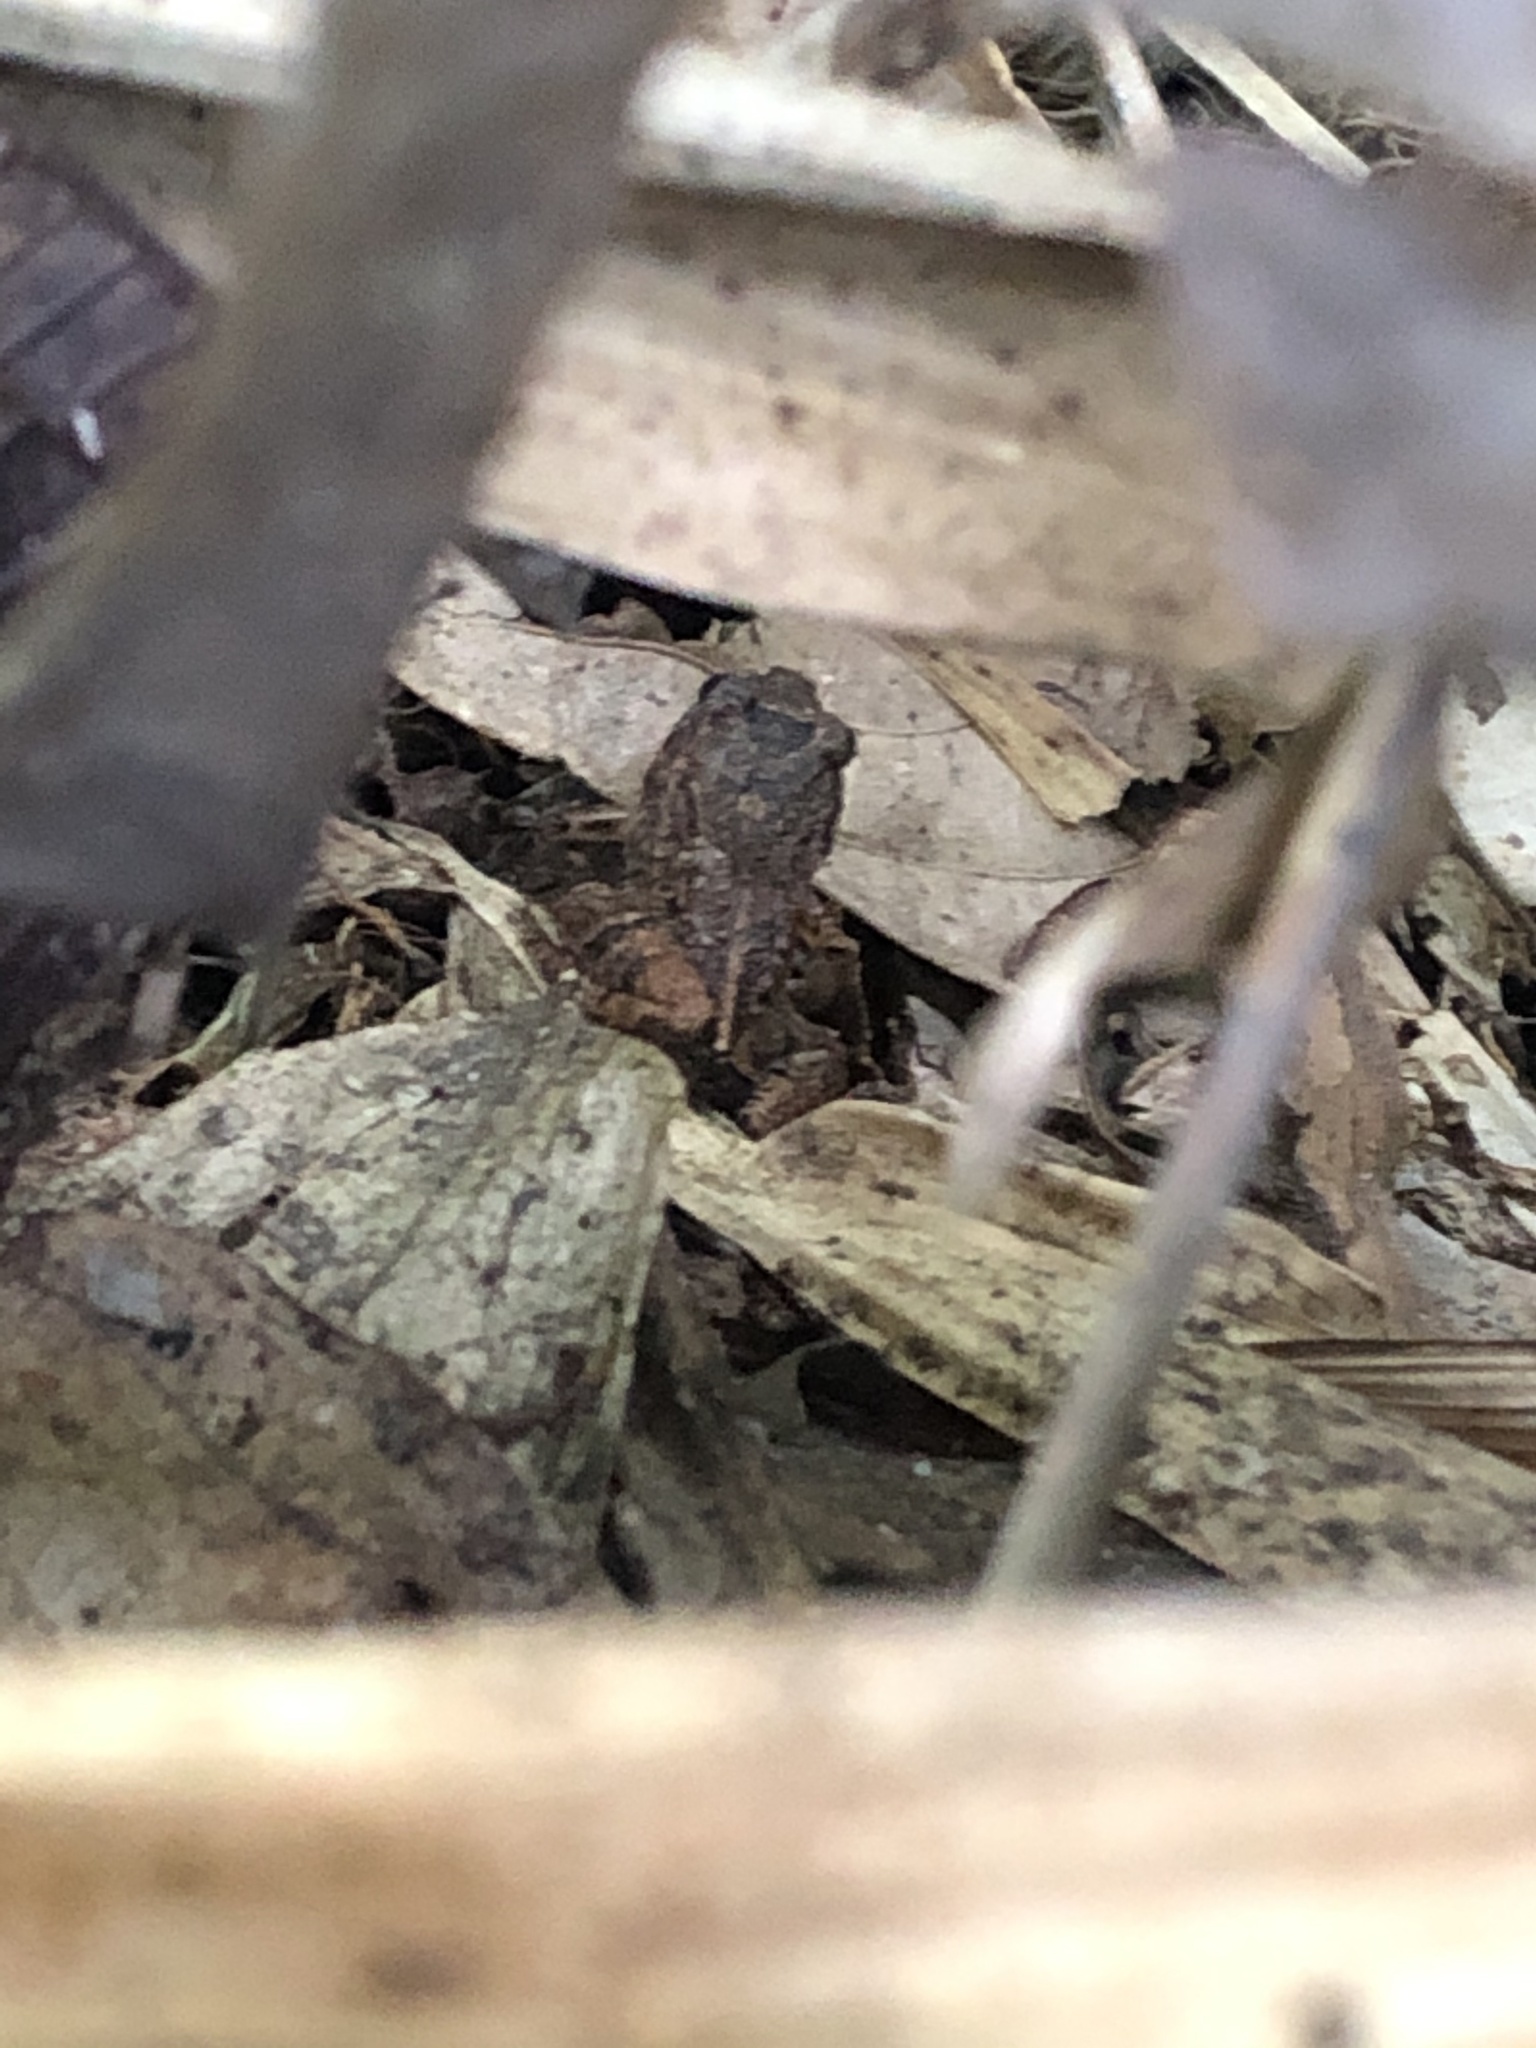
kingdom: Animalia
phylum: Chordata
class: Amphibia
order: Anura
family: Leptodactylidae
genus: Adenomera
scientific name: Adenomera andreae
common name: Lowland tropical bullfrog
